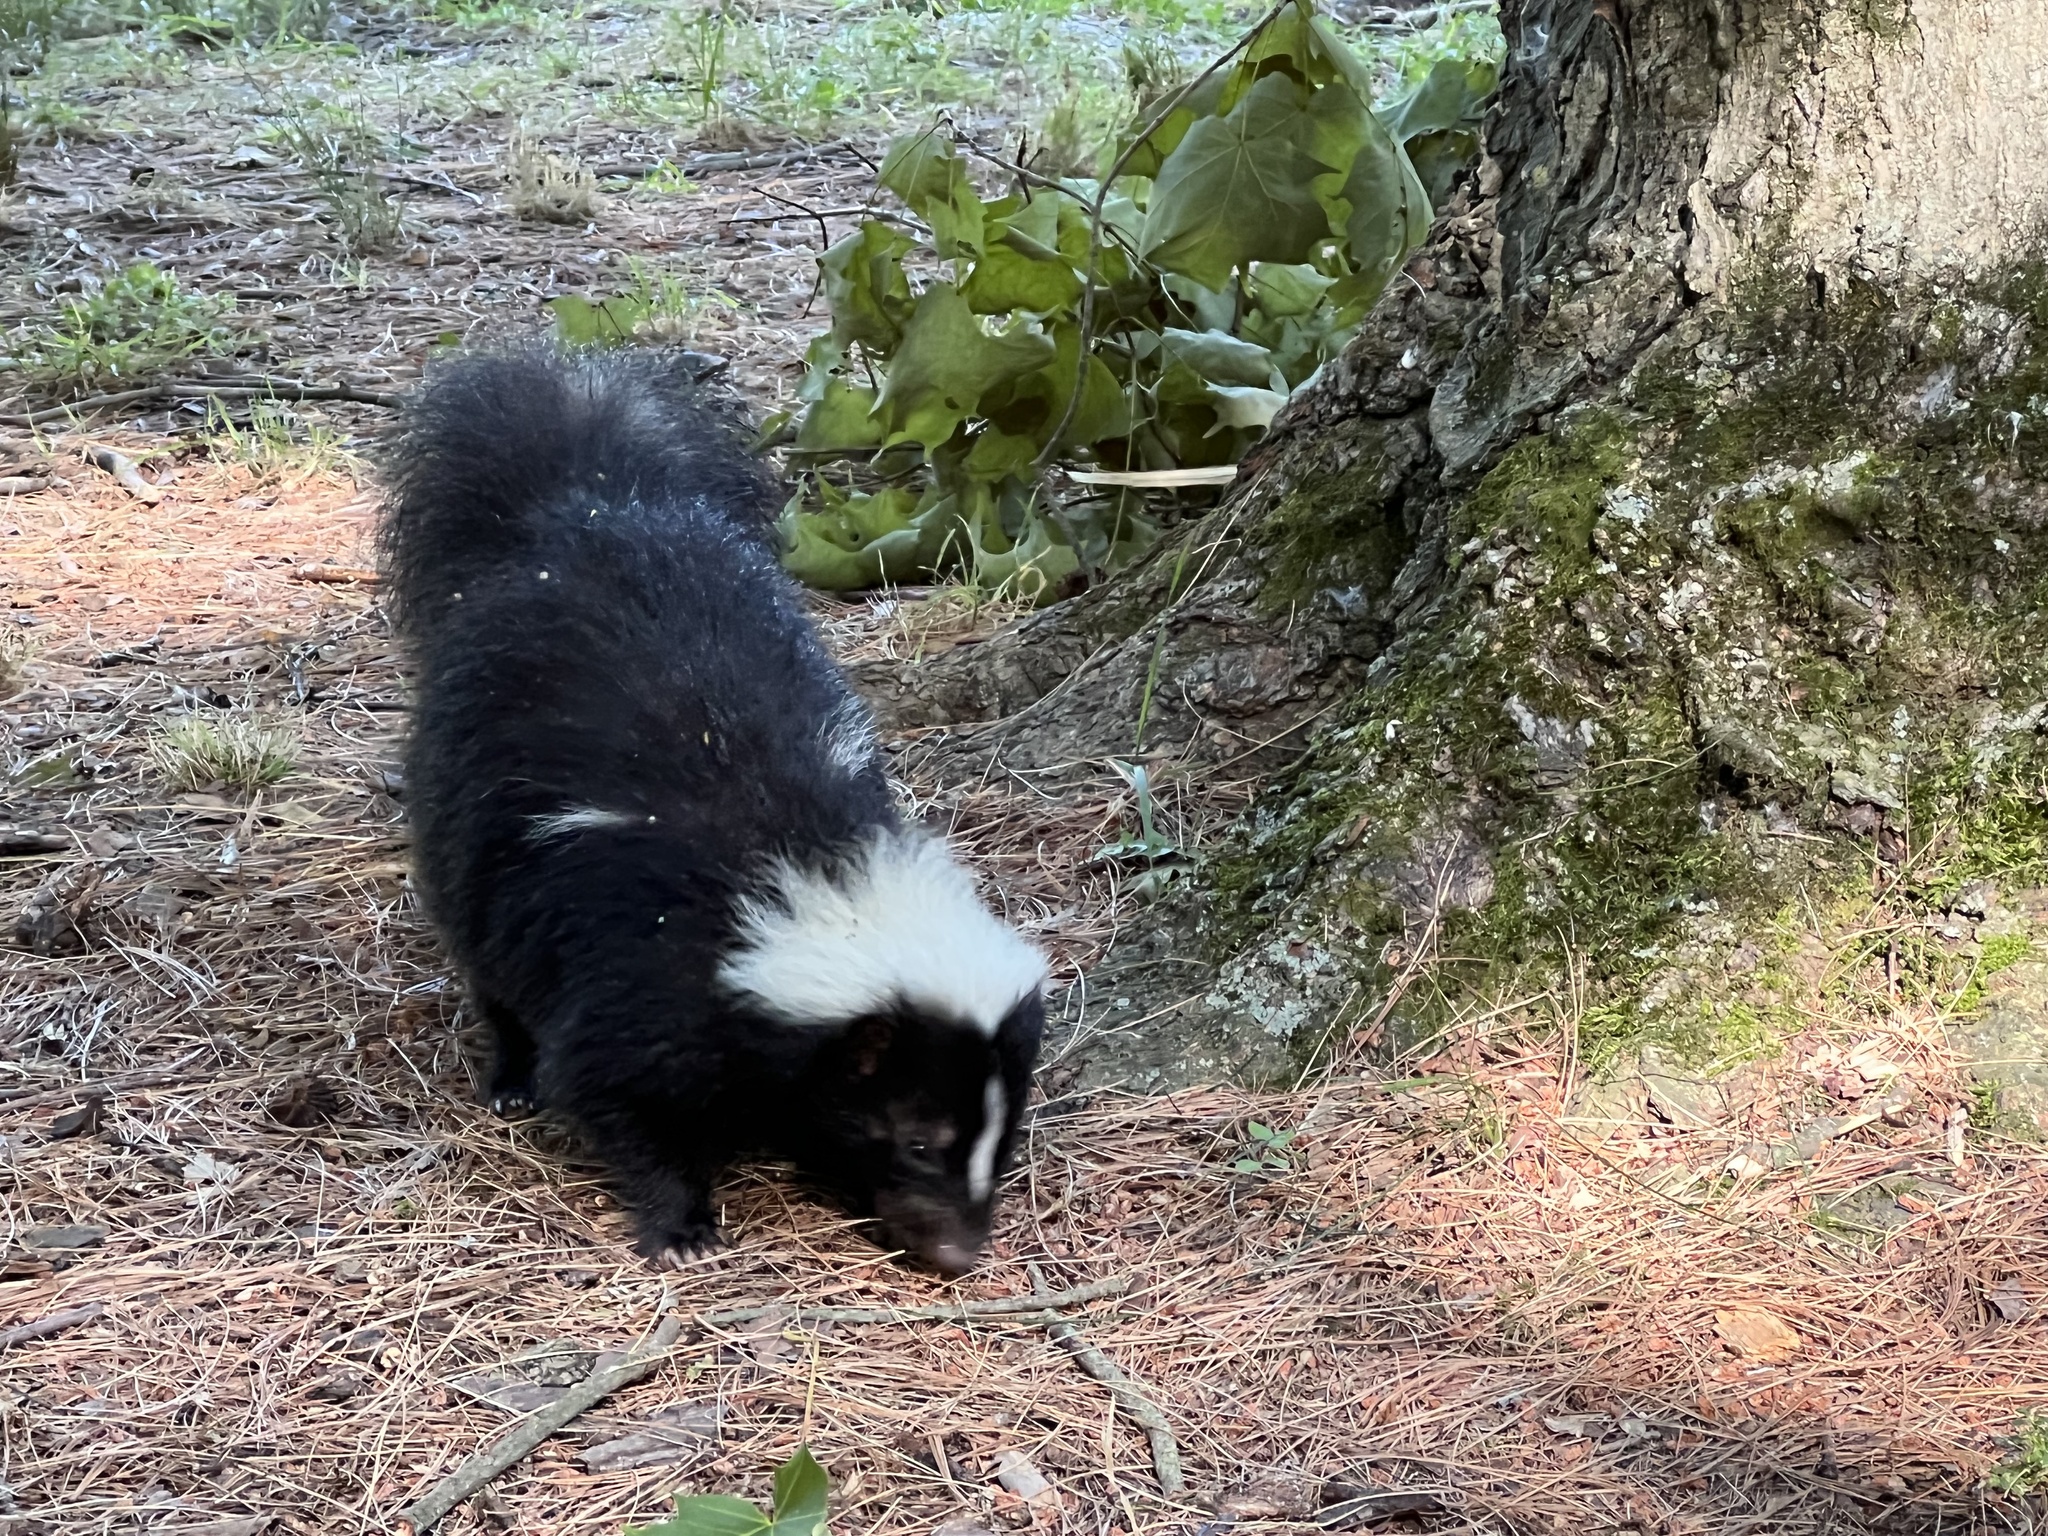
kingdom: Animalia
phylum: Chordata
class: Mammalia
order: Carnivora
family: Mephitidae
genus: Mephitis
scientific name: Mephitis mephitis
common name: Striped skunk
